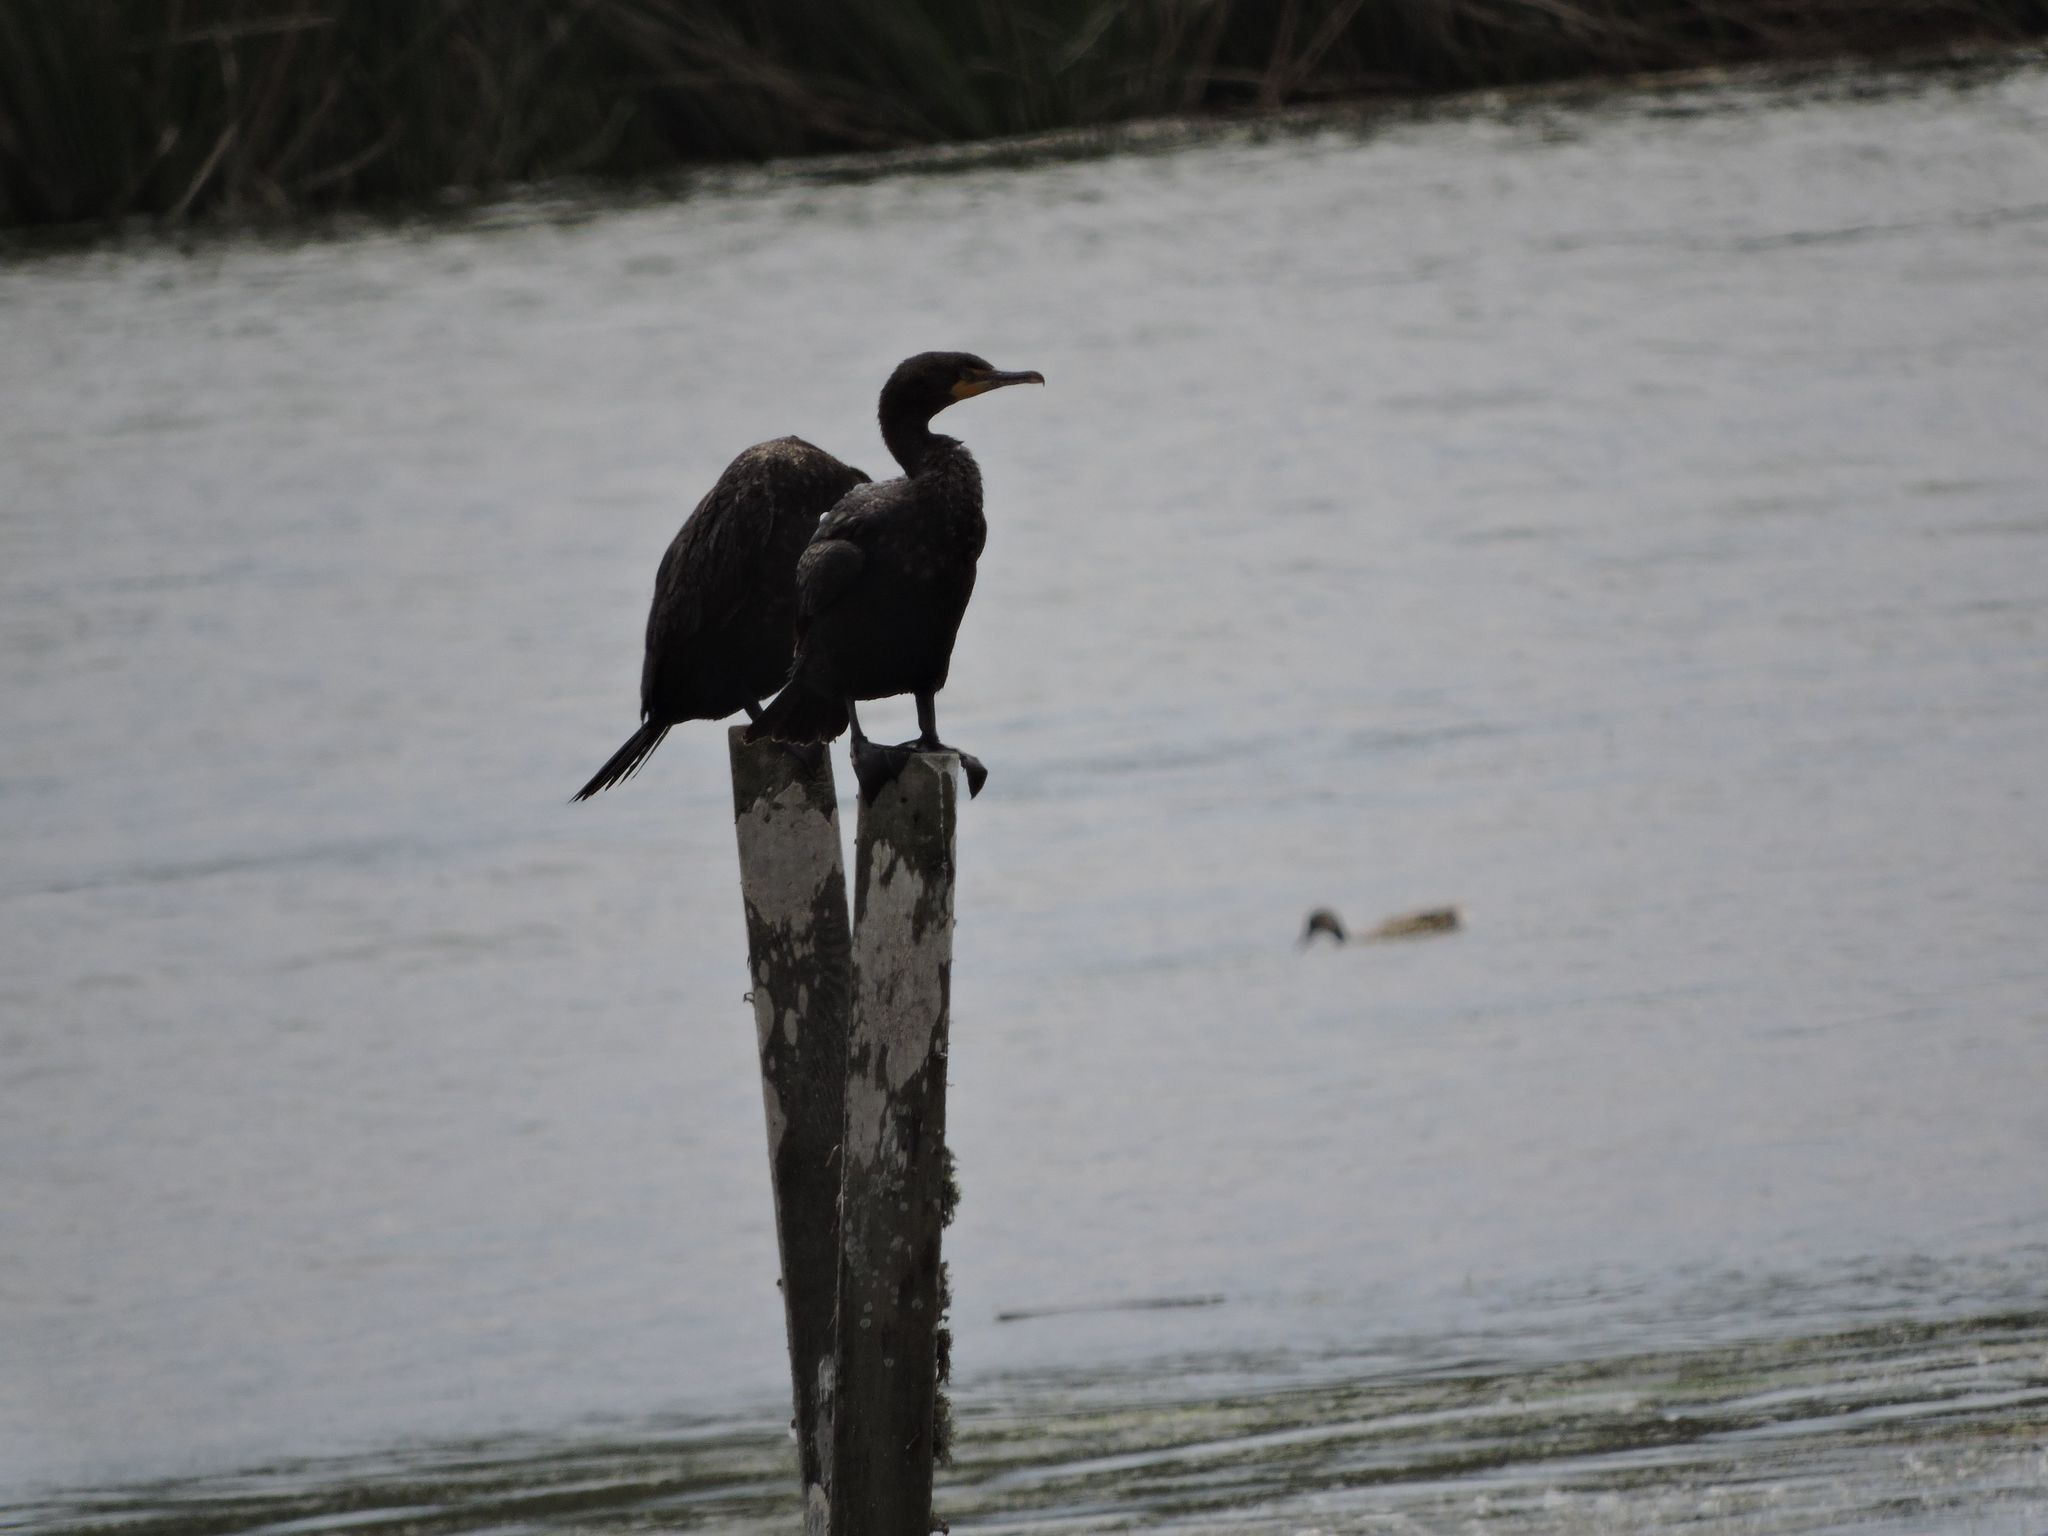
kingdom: Animalia
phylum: Chordata
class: Aves
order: Suliformes
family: Phalacrocoracidae
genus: Phalacrocorax
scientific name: Phalacrocorax auritus
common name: Double-crested cormorant
